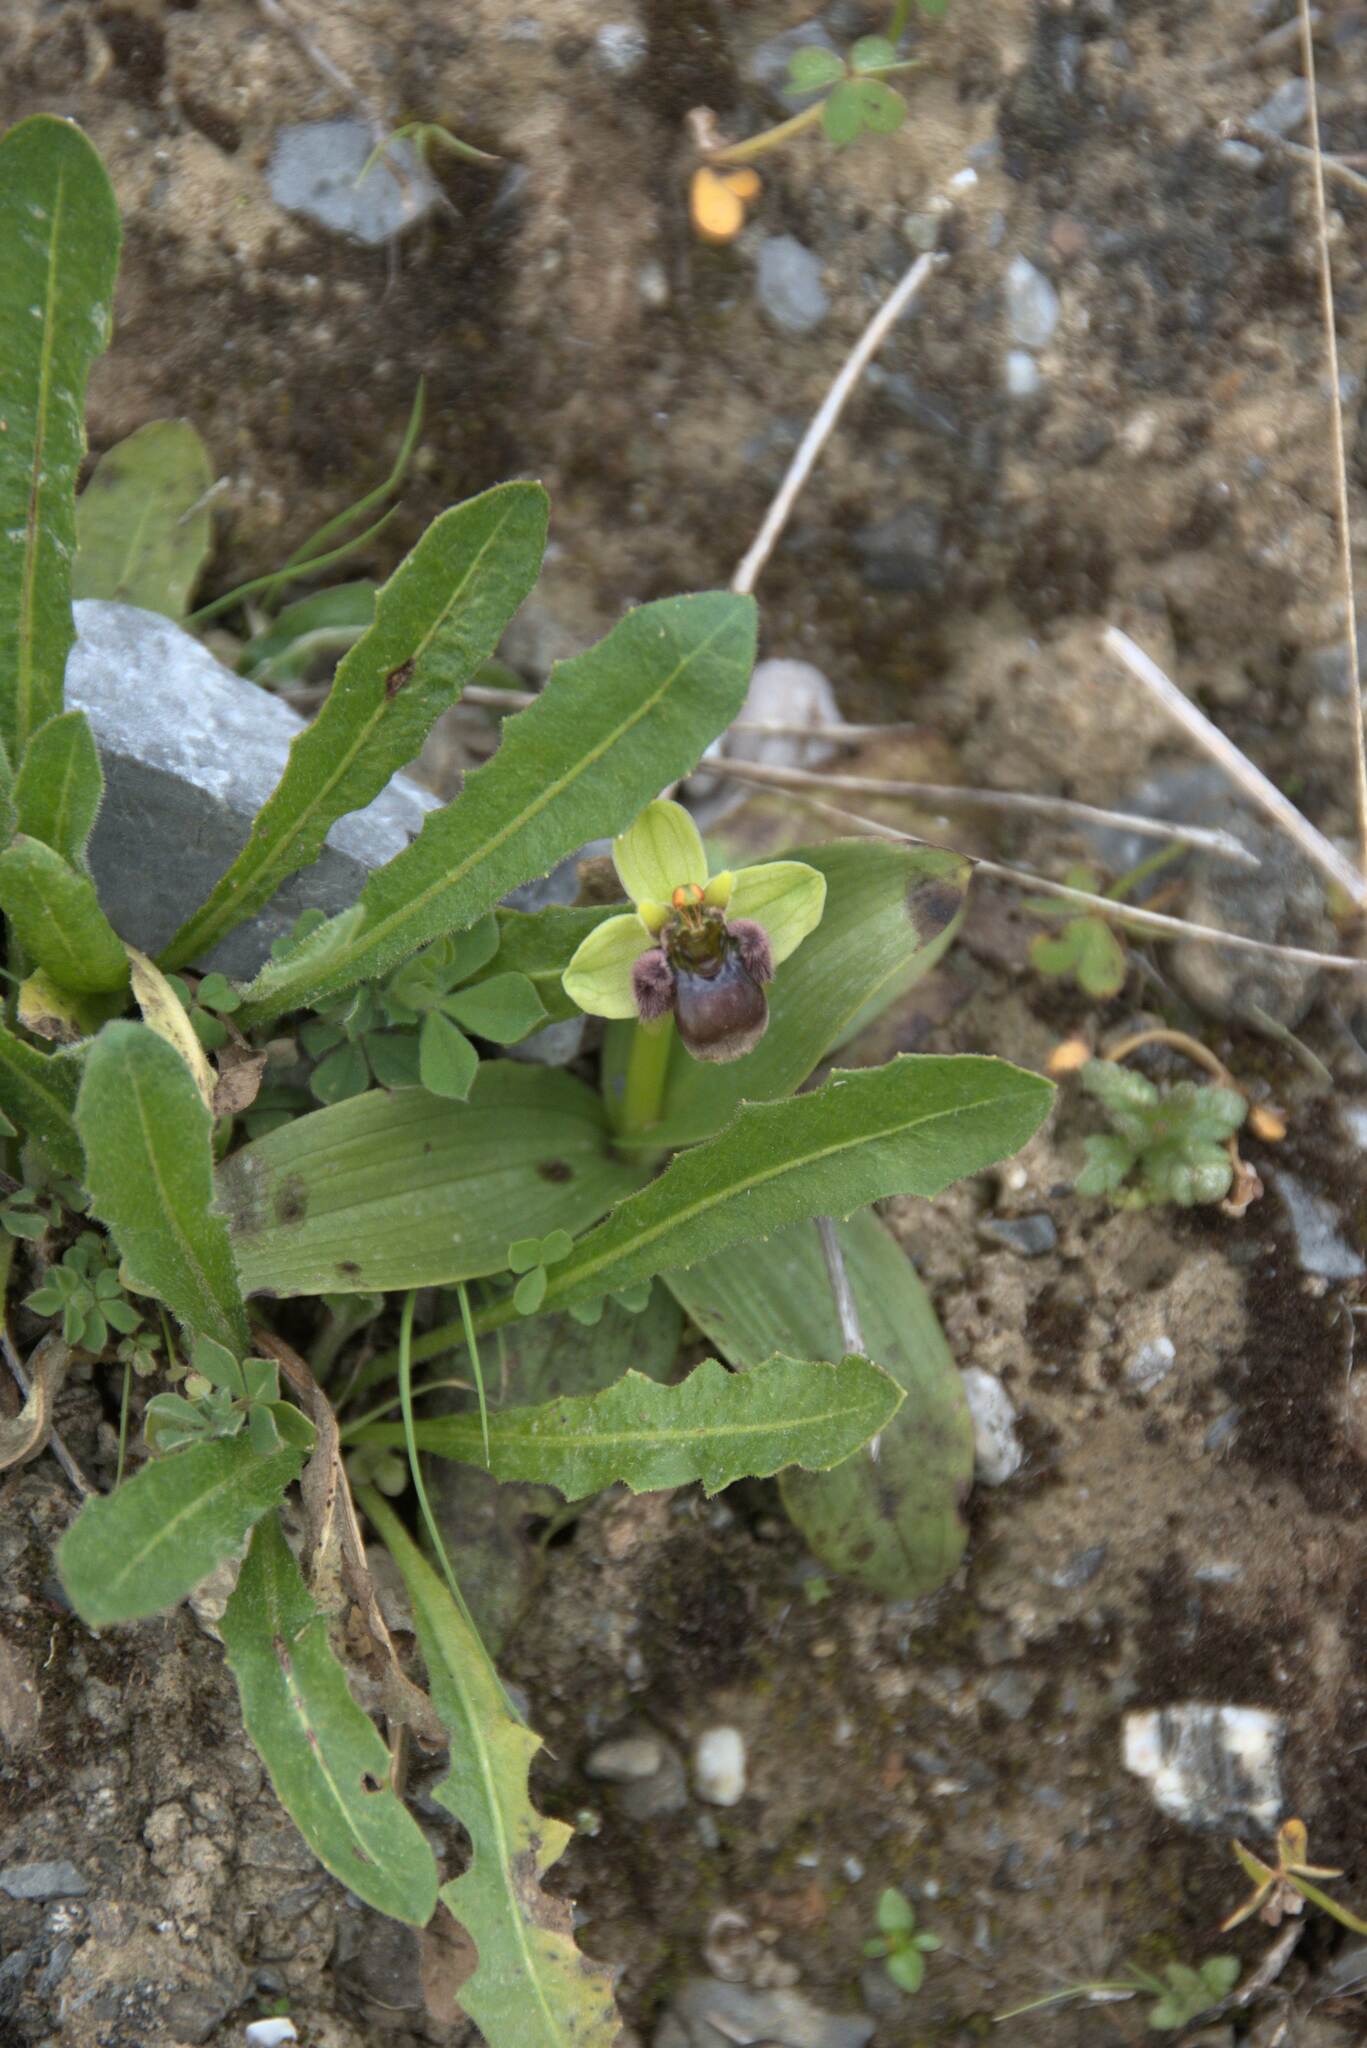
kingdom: Plantae
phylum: Tracheophyta
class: Liliopsida
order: Asparagales
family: Orchidaceae
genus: Ophrys
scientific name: Ophrys bombyliflora
